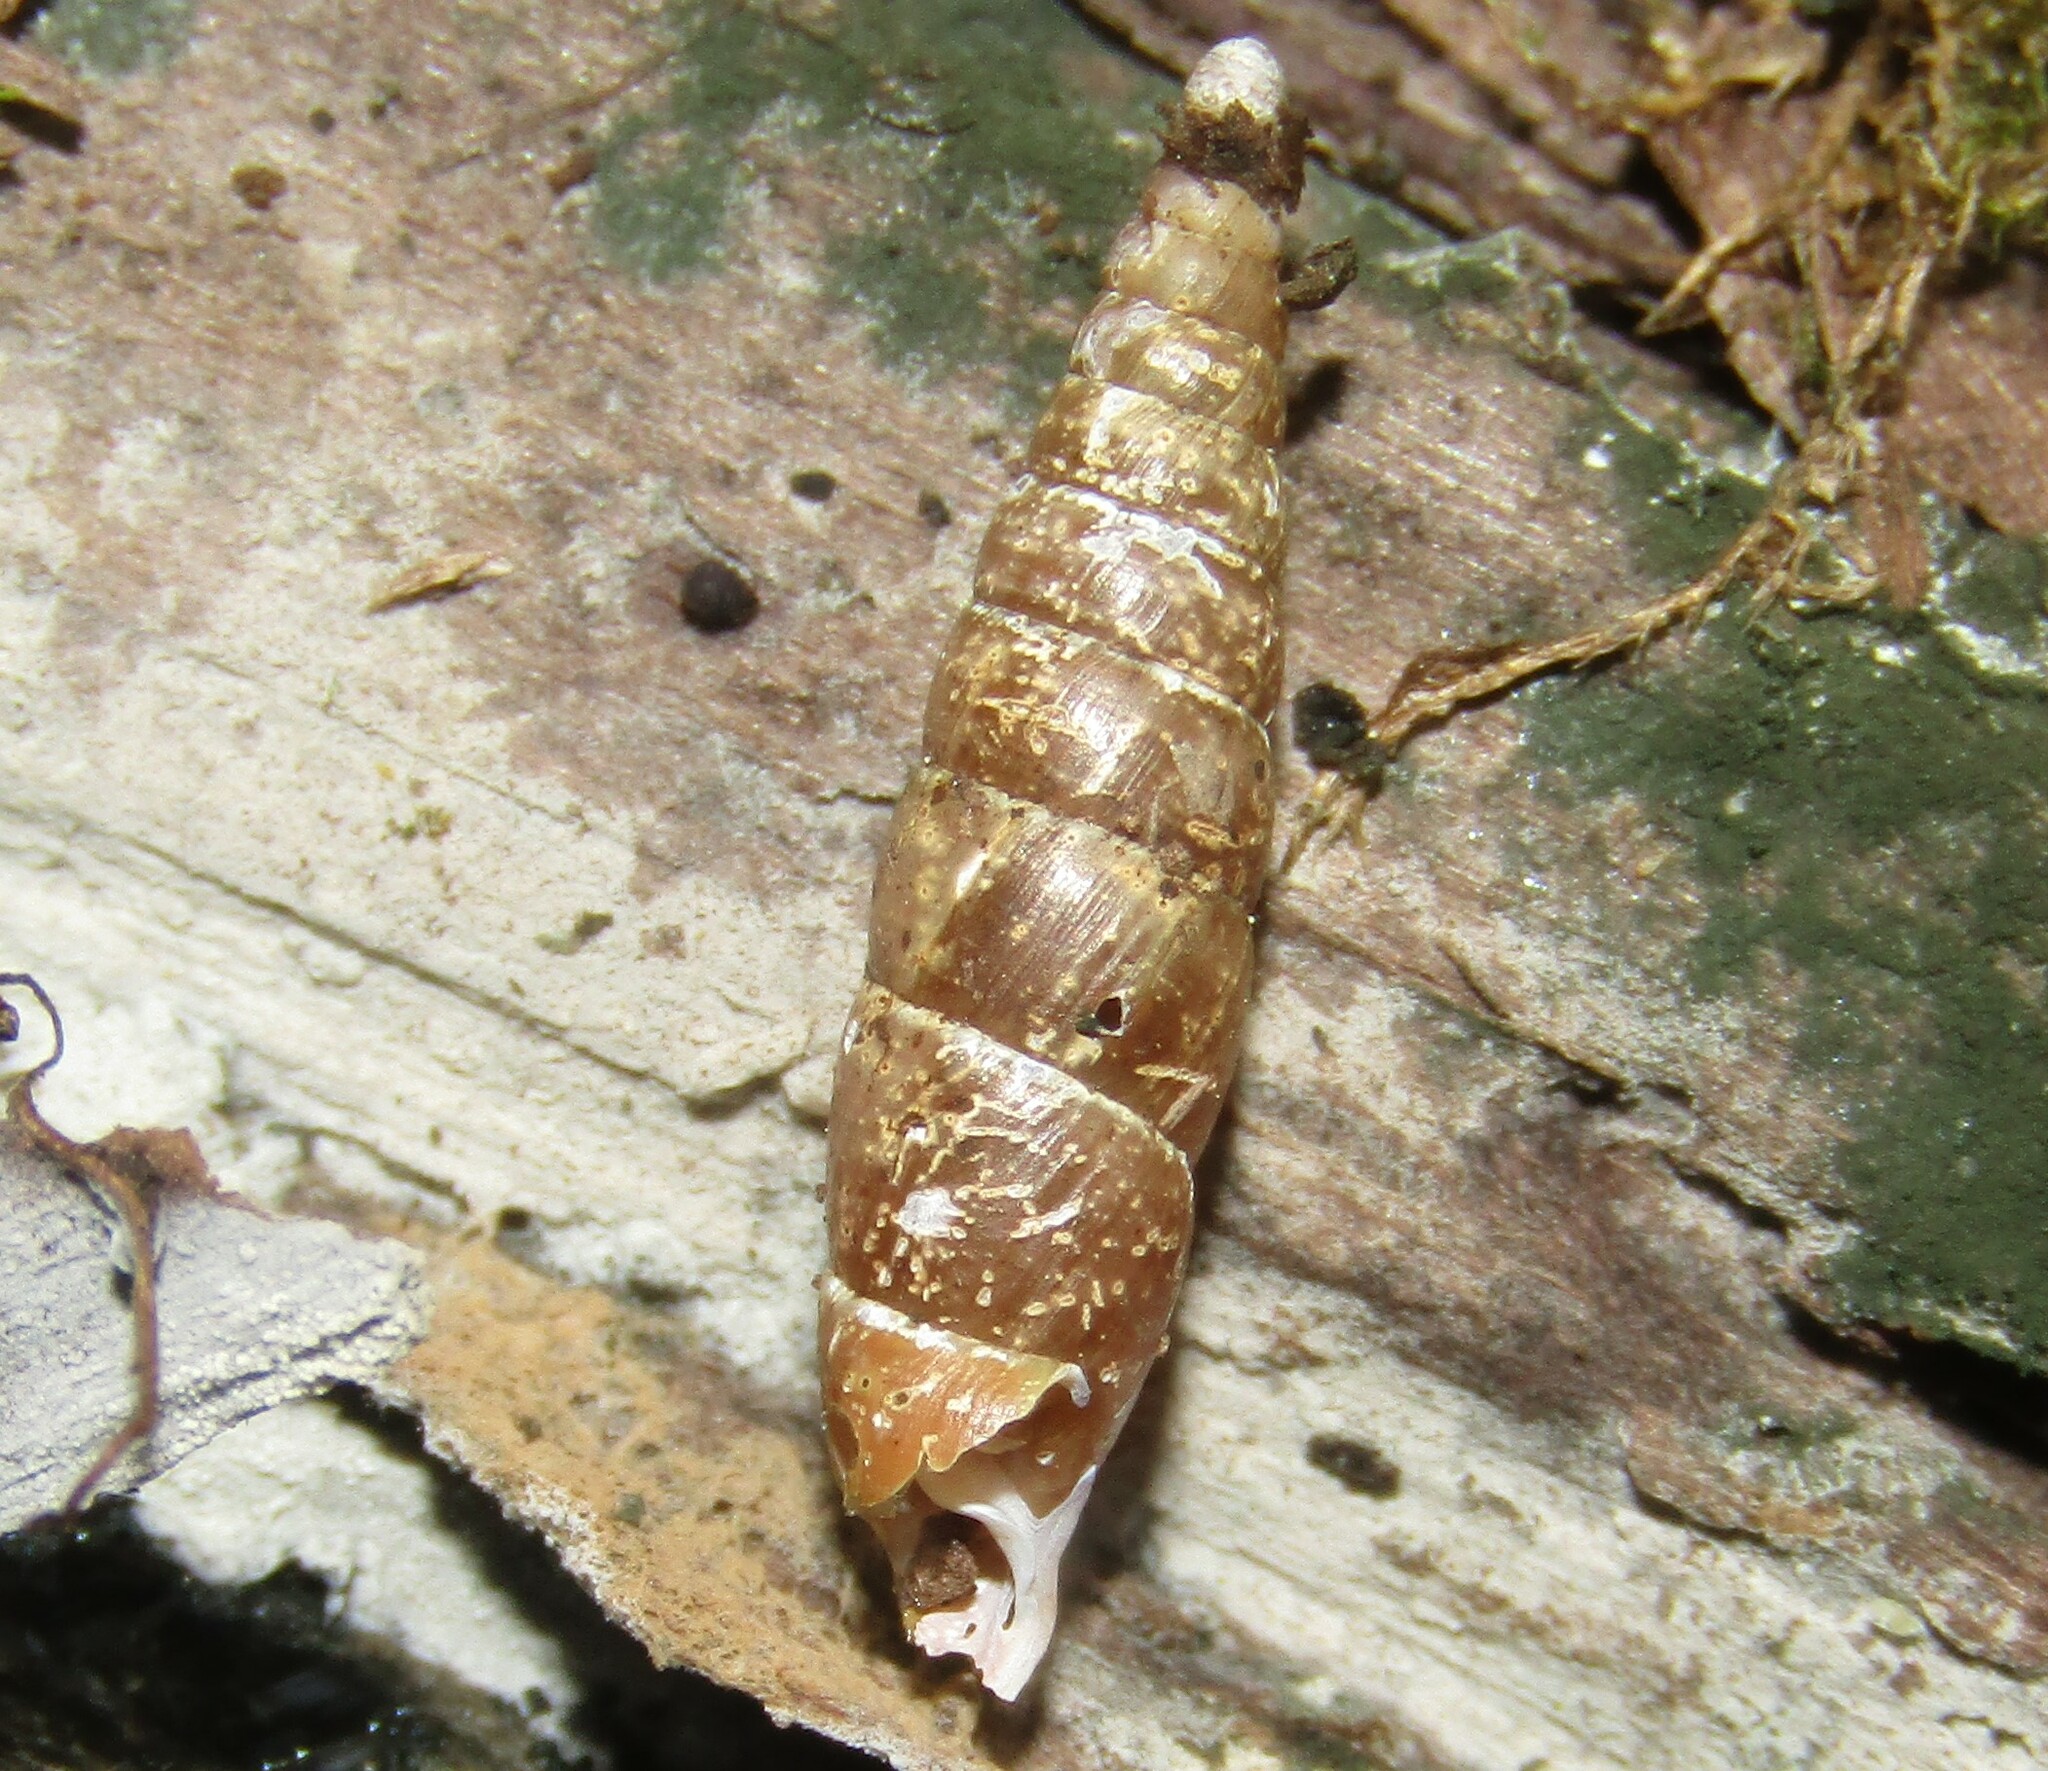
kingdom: Animalia
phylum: Mollusca
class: Gastropoda
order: Stylommatophora
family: Clausiliidae
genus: Cochlodina
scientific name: Cochlodina laminata
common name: Plaited door snail
